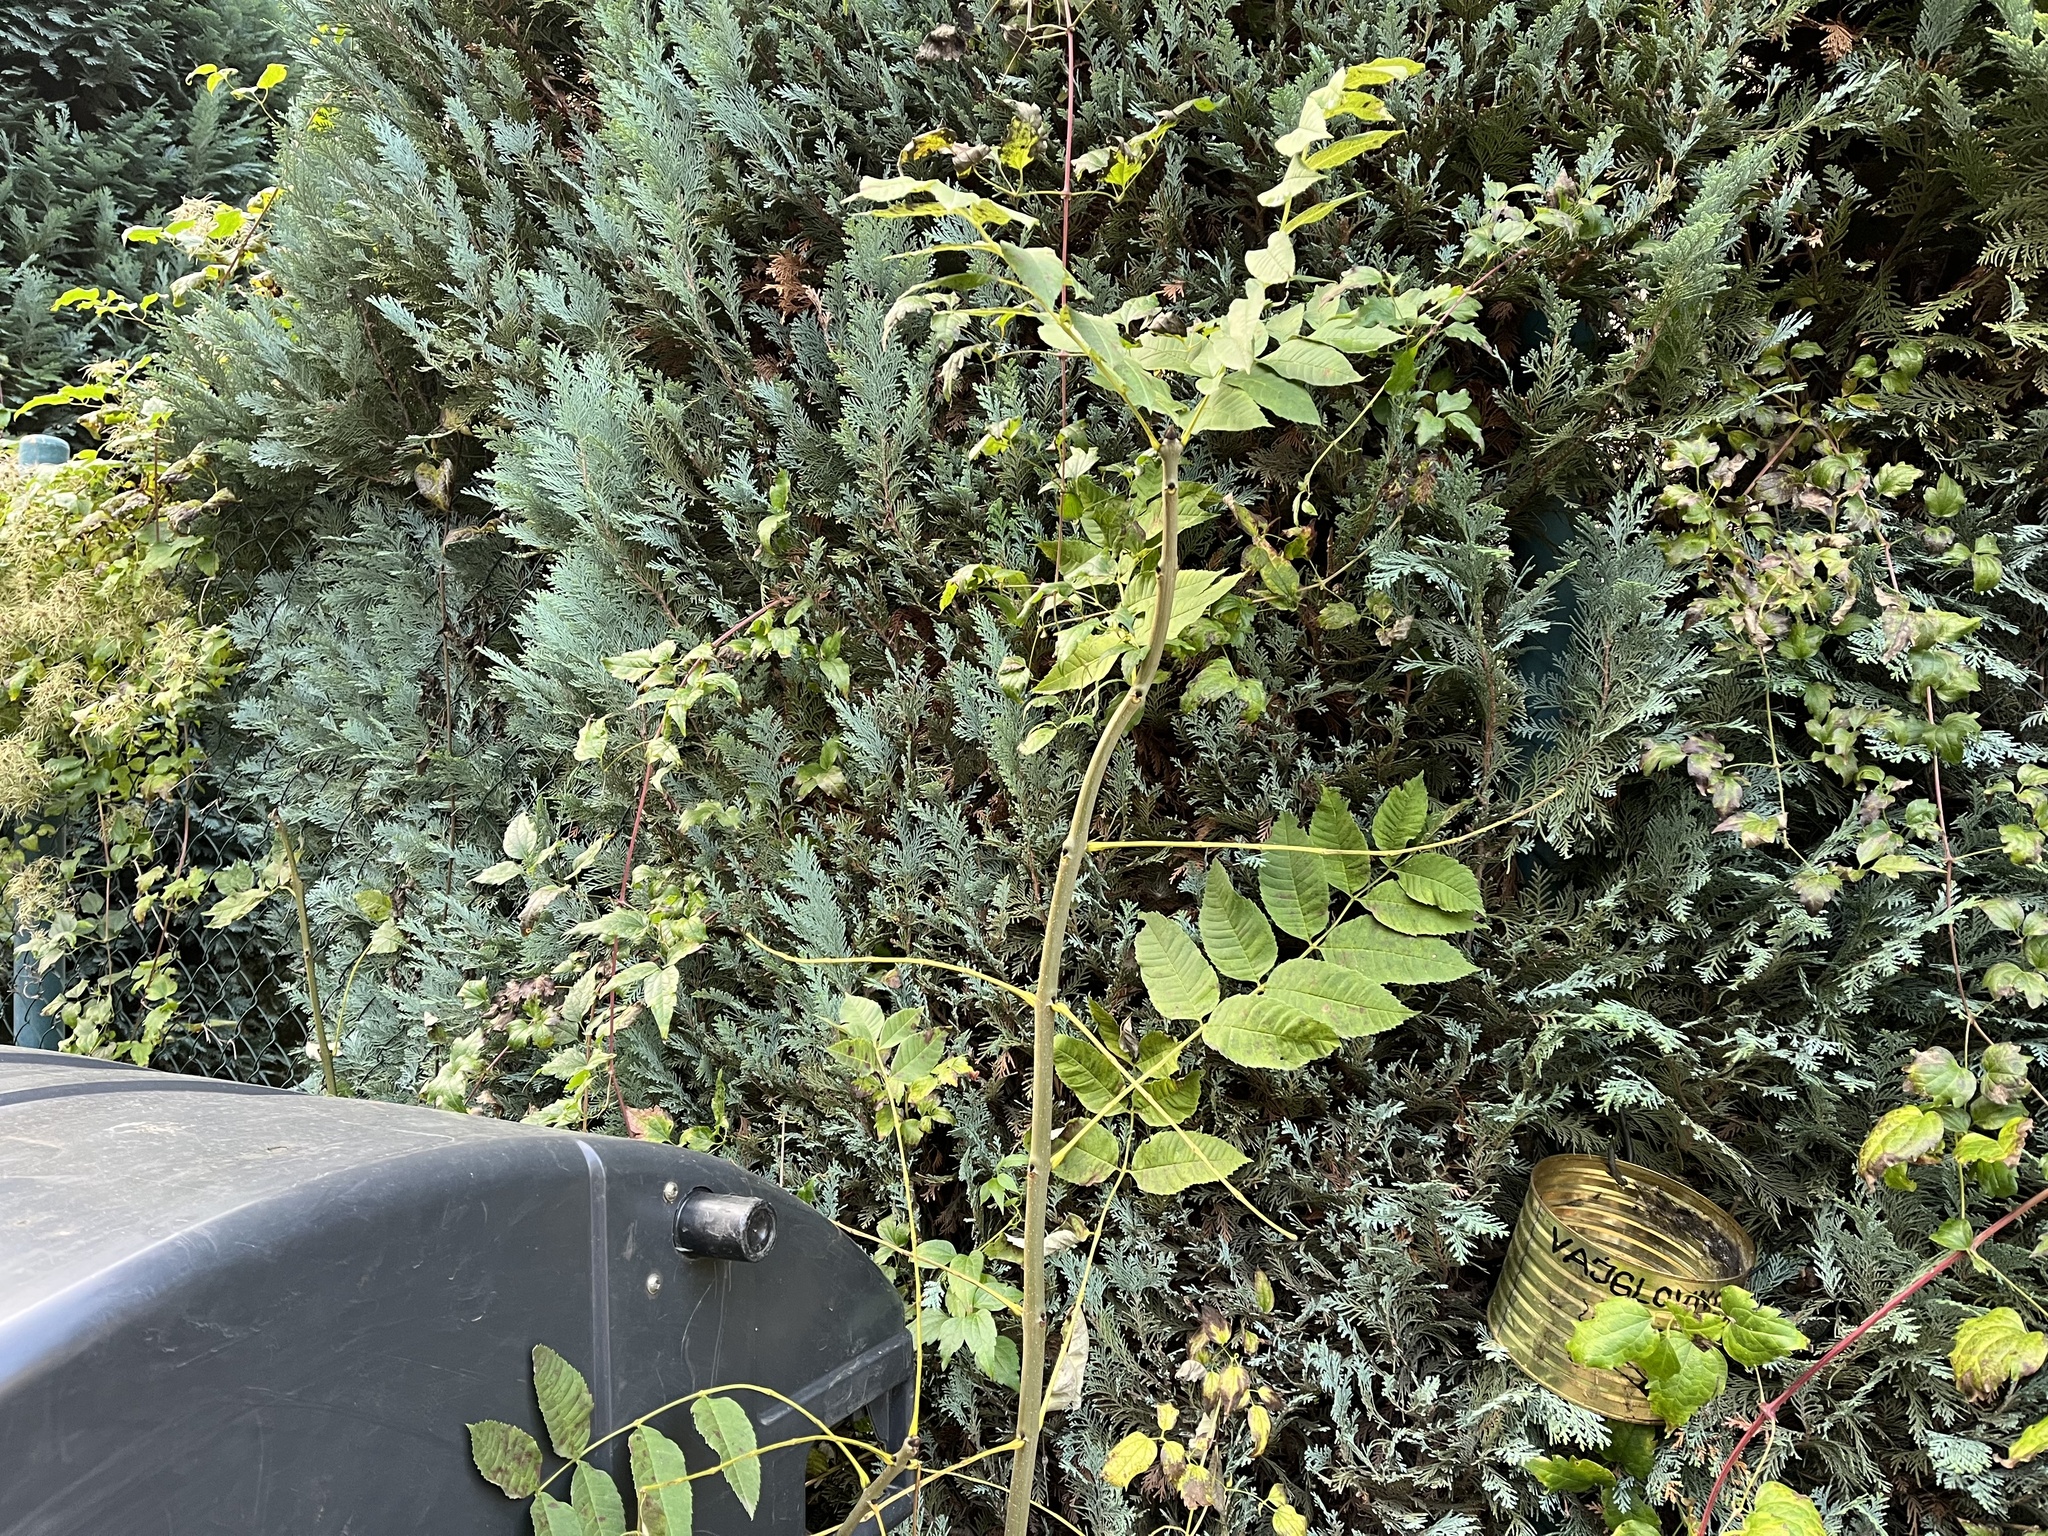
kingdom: Plantae
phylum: Tracheophyta
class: Magnoliopsida
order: Lamiales
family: Oleaceae
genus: Fraxinus
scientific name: Fraxinus excelsior
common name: European ash
